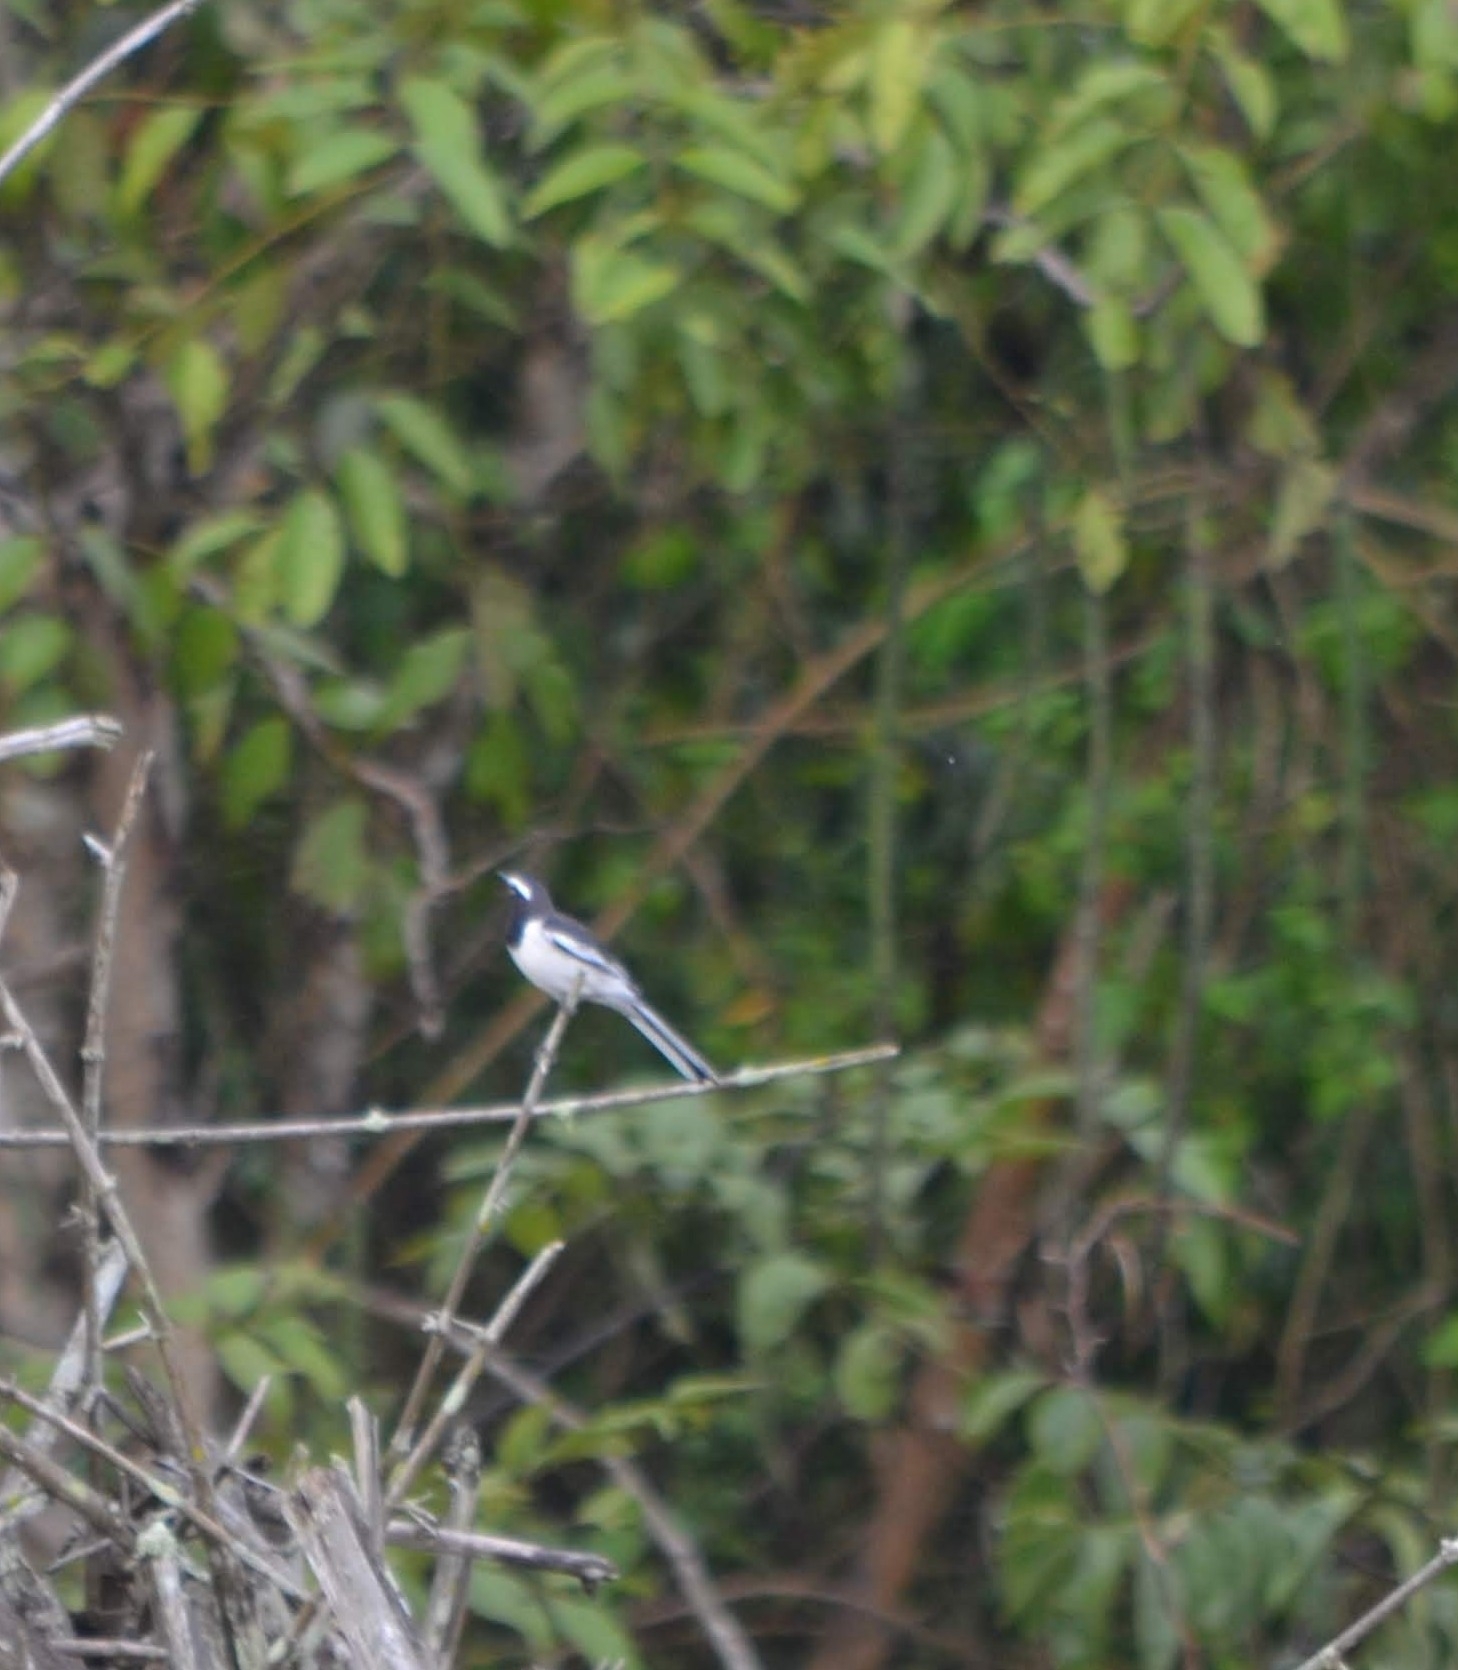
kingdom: Animalia
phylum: Chordata
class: Aves
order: Passeriformes
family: Motacillidae
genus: Motacilla
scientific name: Motacilla maderaspatensis
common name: White-browed wagtail
